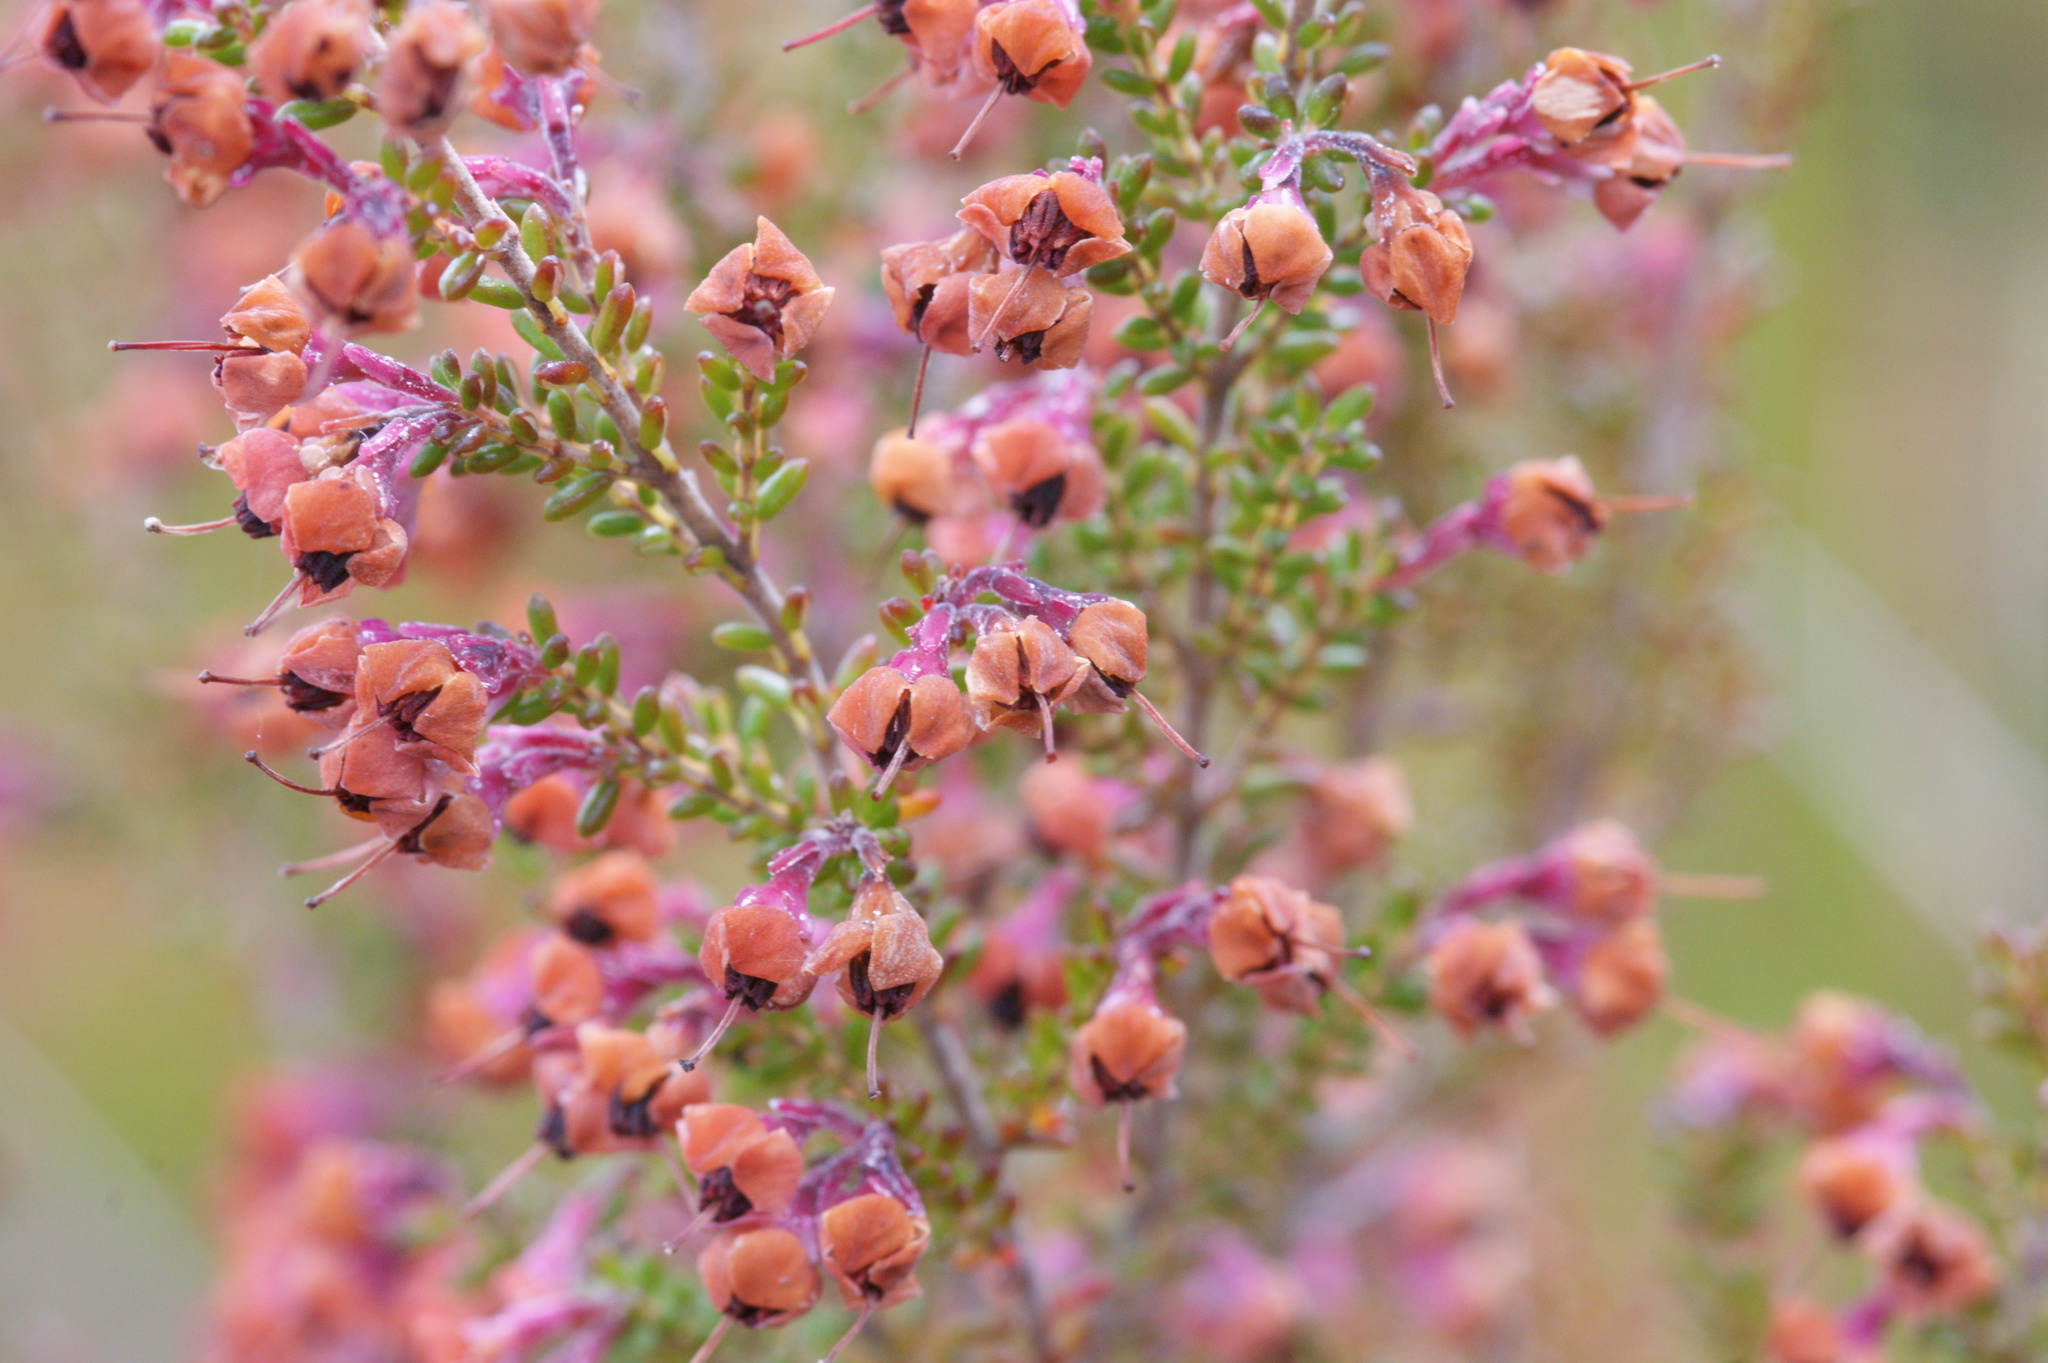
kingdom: Plantae
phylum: Tracheophyta
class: Magnoliopsida
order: Ericales
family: Ericaceae
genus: Erica
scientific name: Erica melanthera
